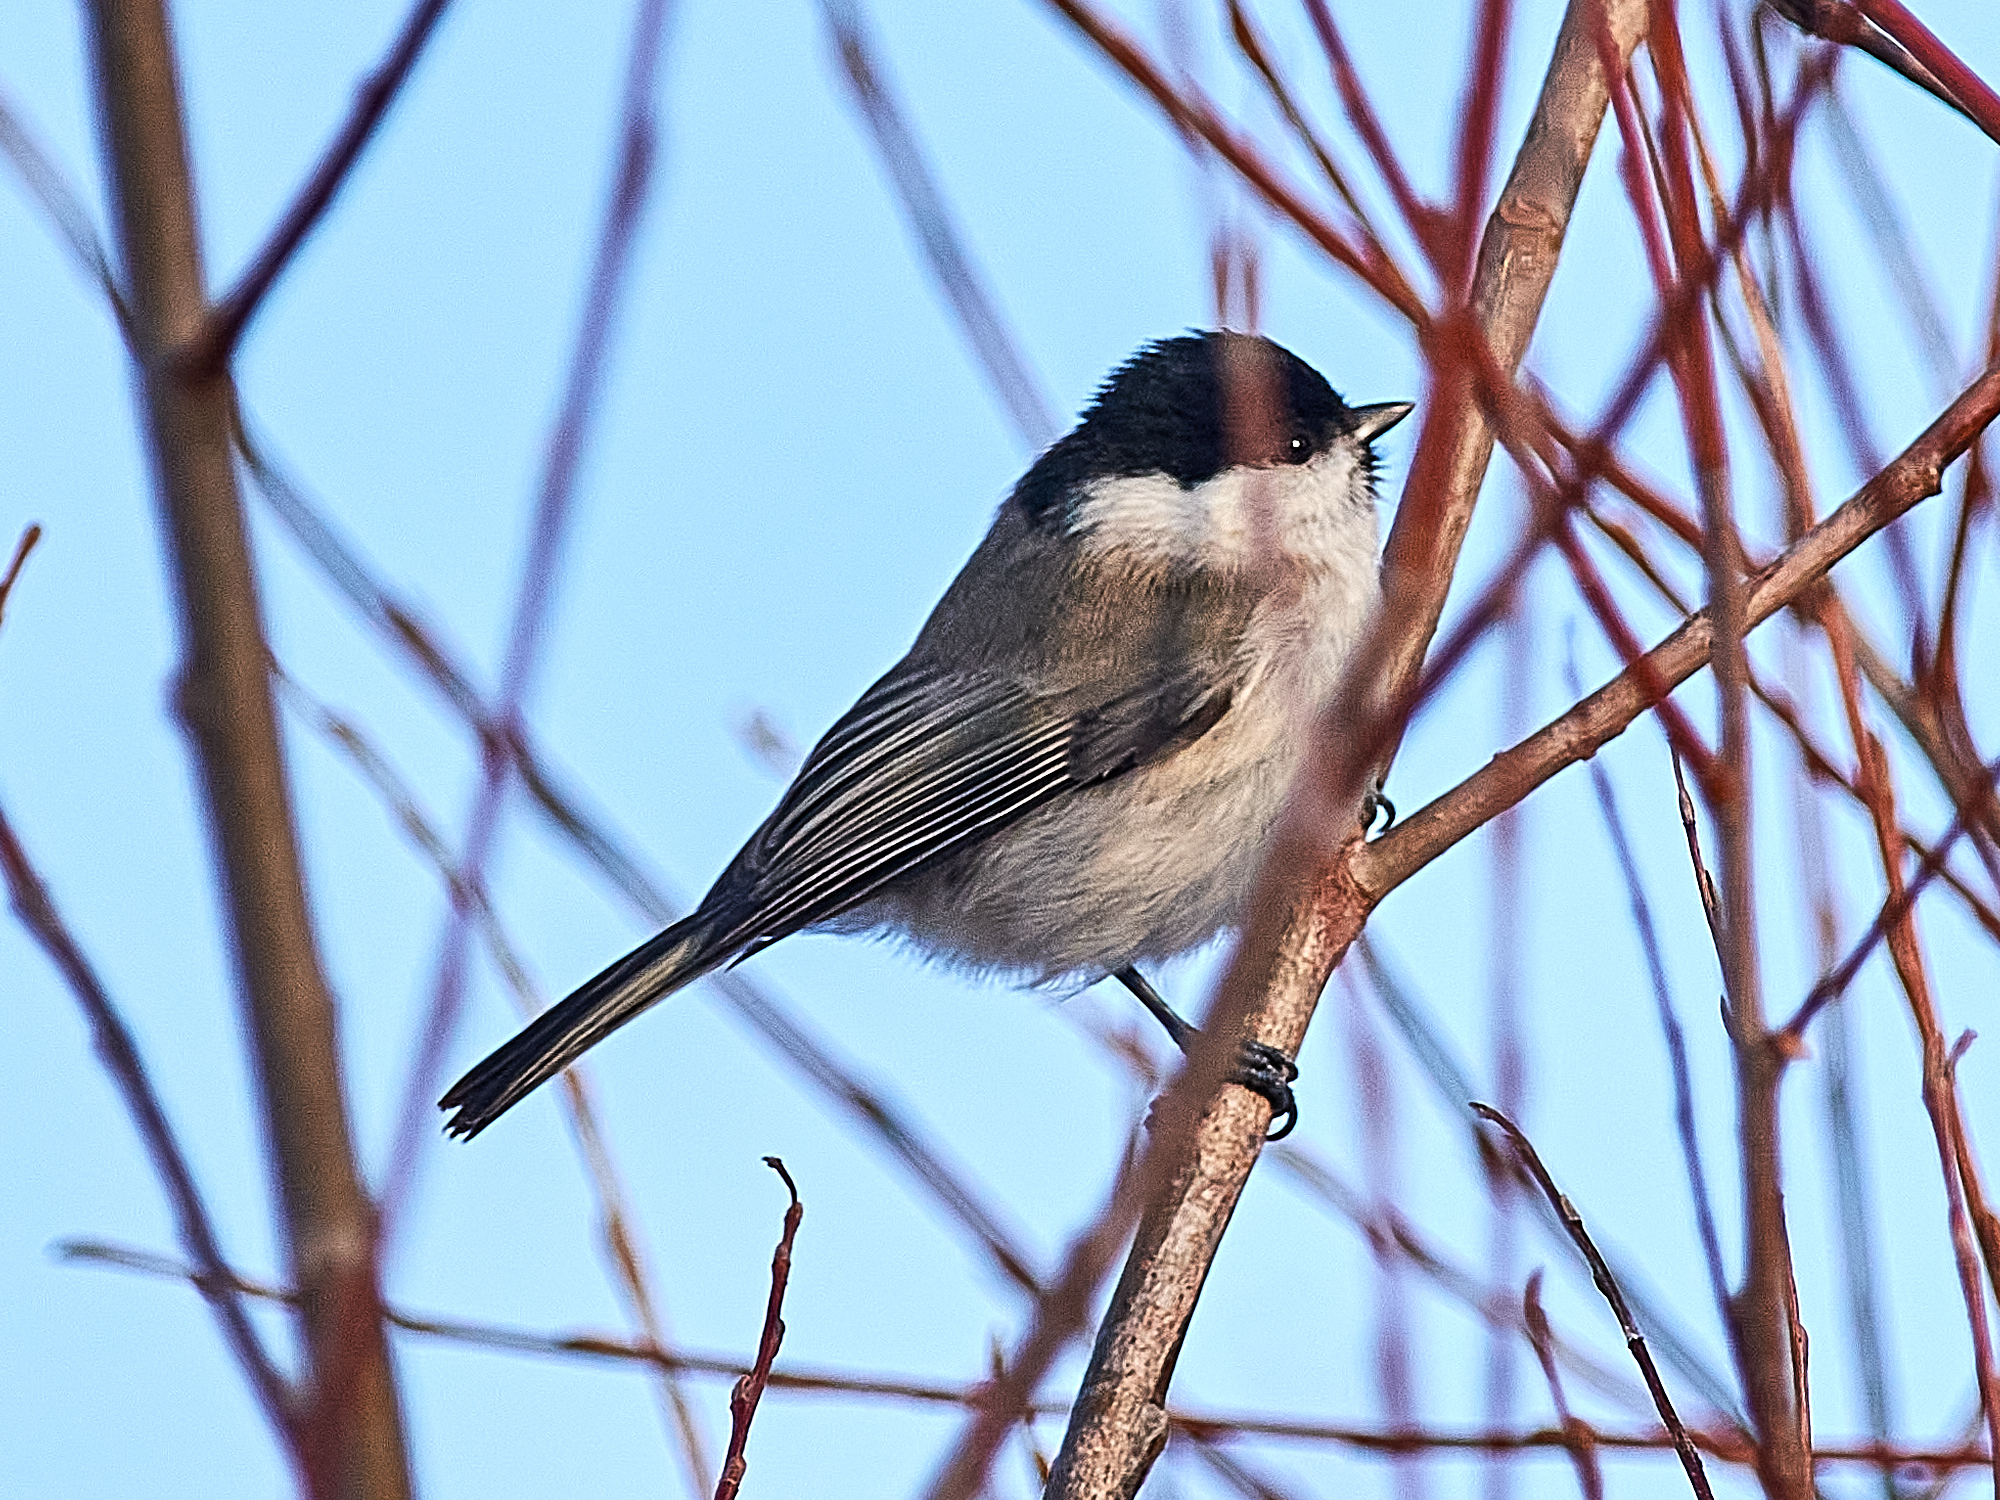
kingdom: Animalia
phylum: Chordata
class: Aves
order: Passeriformes
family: Paridae
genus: Poecile
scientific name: Poecile palustris
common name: Marsh tit
